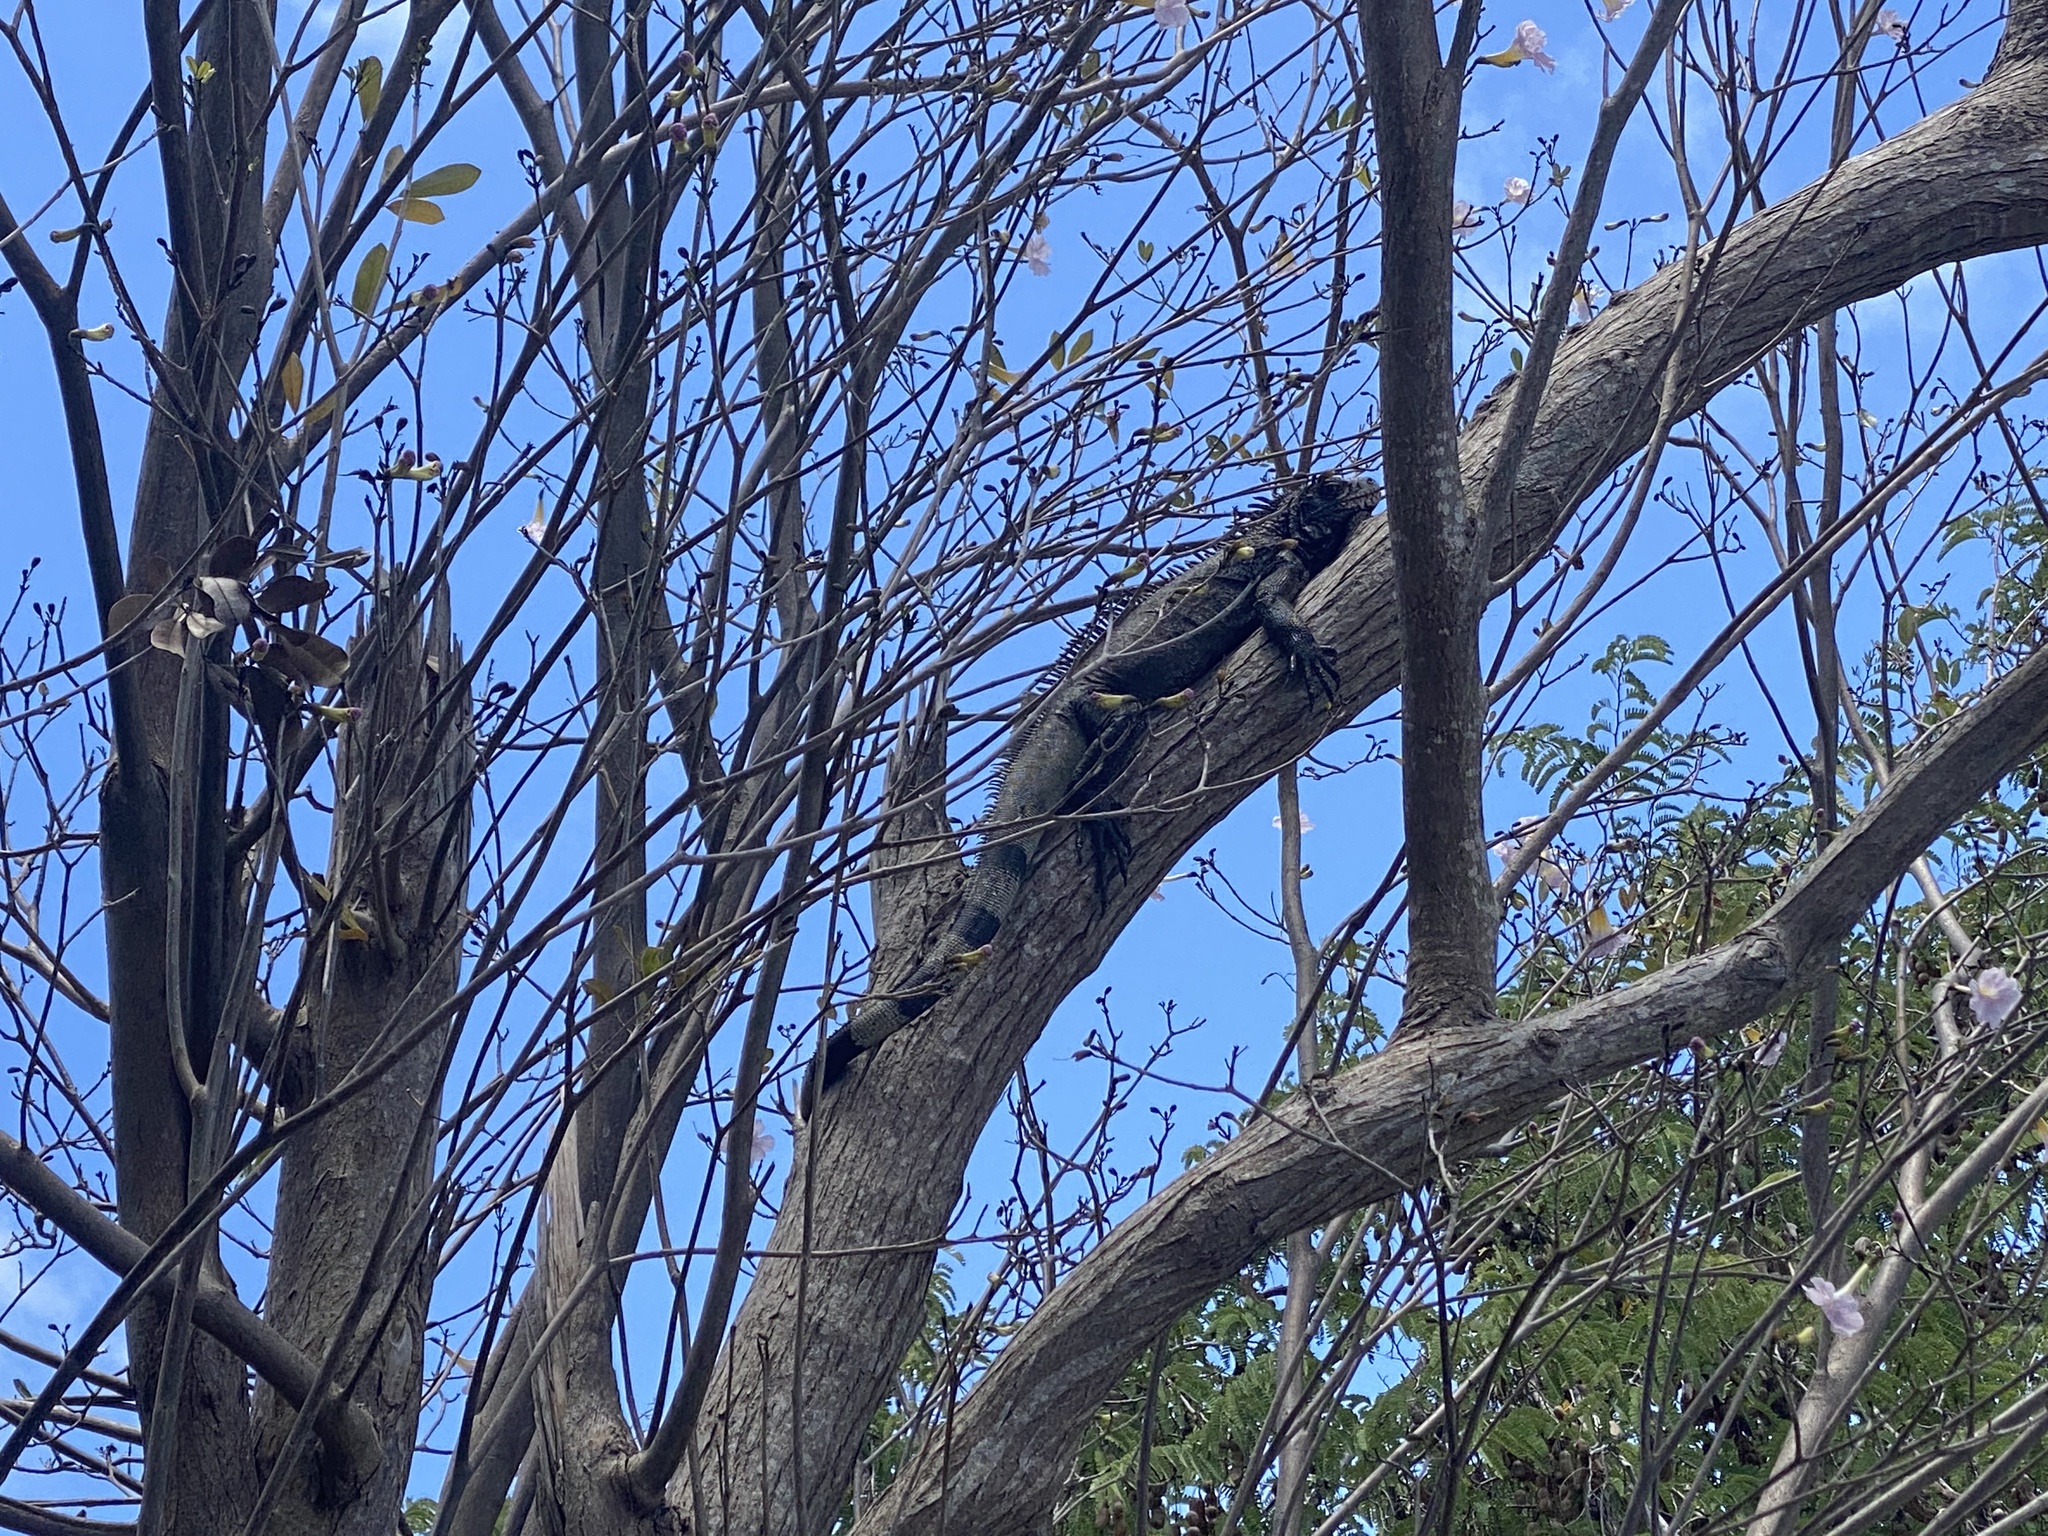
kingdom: Animalia
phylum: Chordata
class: Squamata
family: Iguanidae
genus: Iguana
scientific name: Iguana iguana
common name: Green iguana
